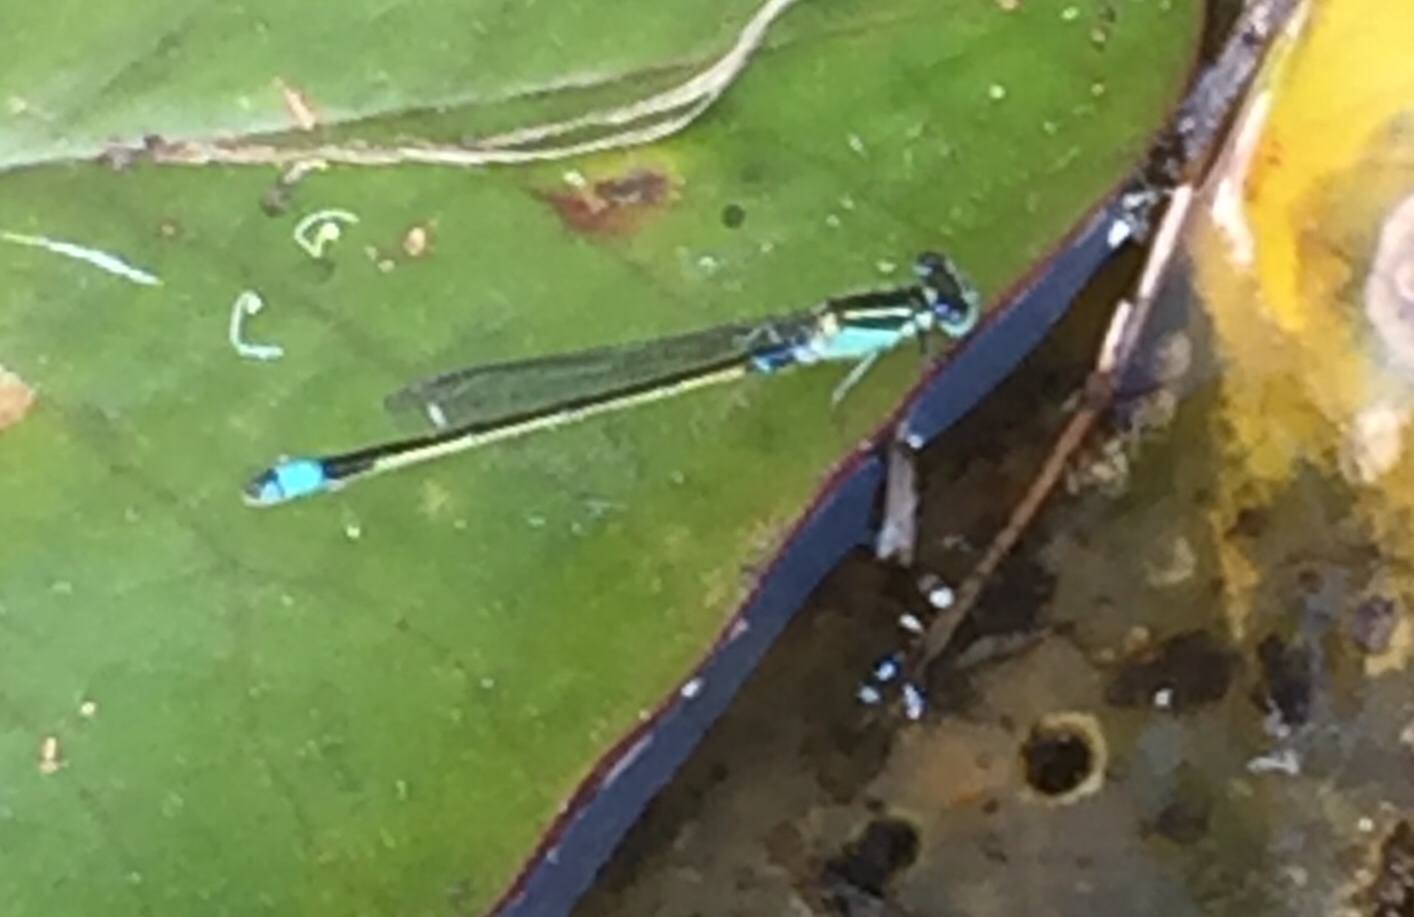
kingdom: Animalia
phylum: Arthropoda
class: Insecta
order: Odonata
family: Coenagrionidae
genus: Ischnura
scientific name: Ischnura senegalensis
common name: Tropical bluetail
